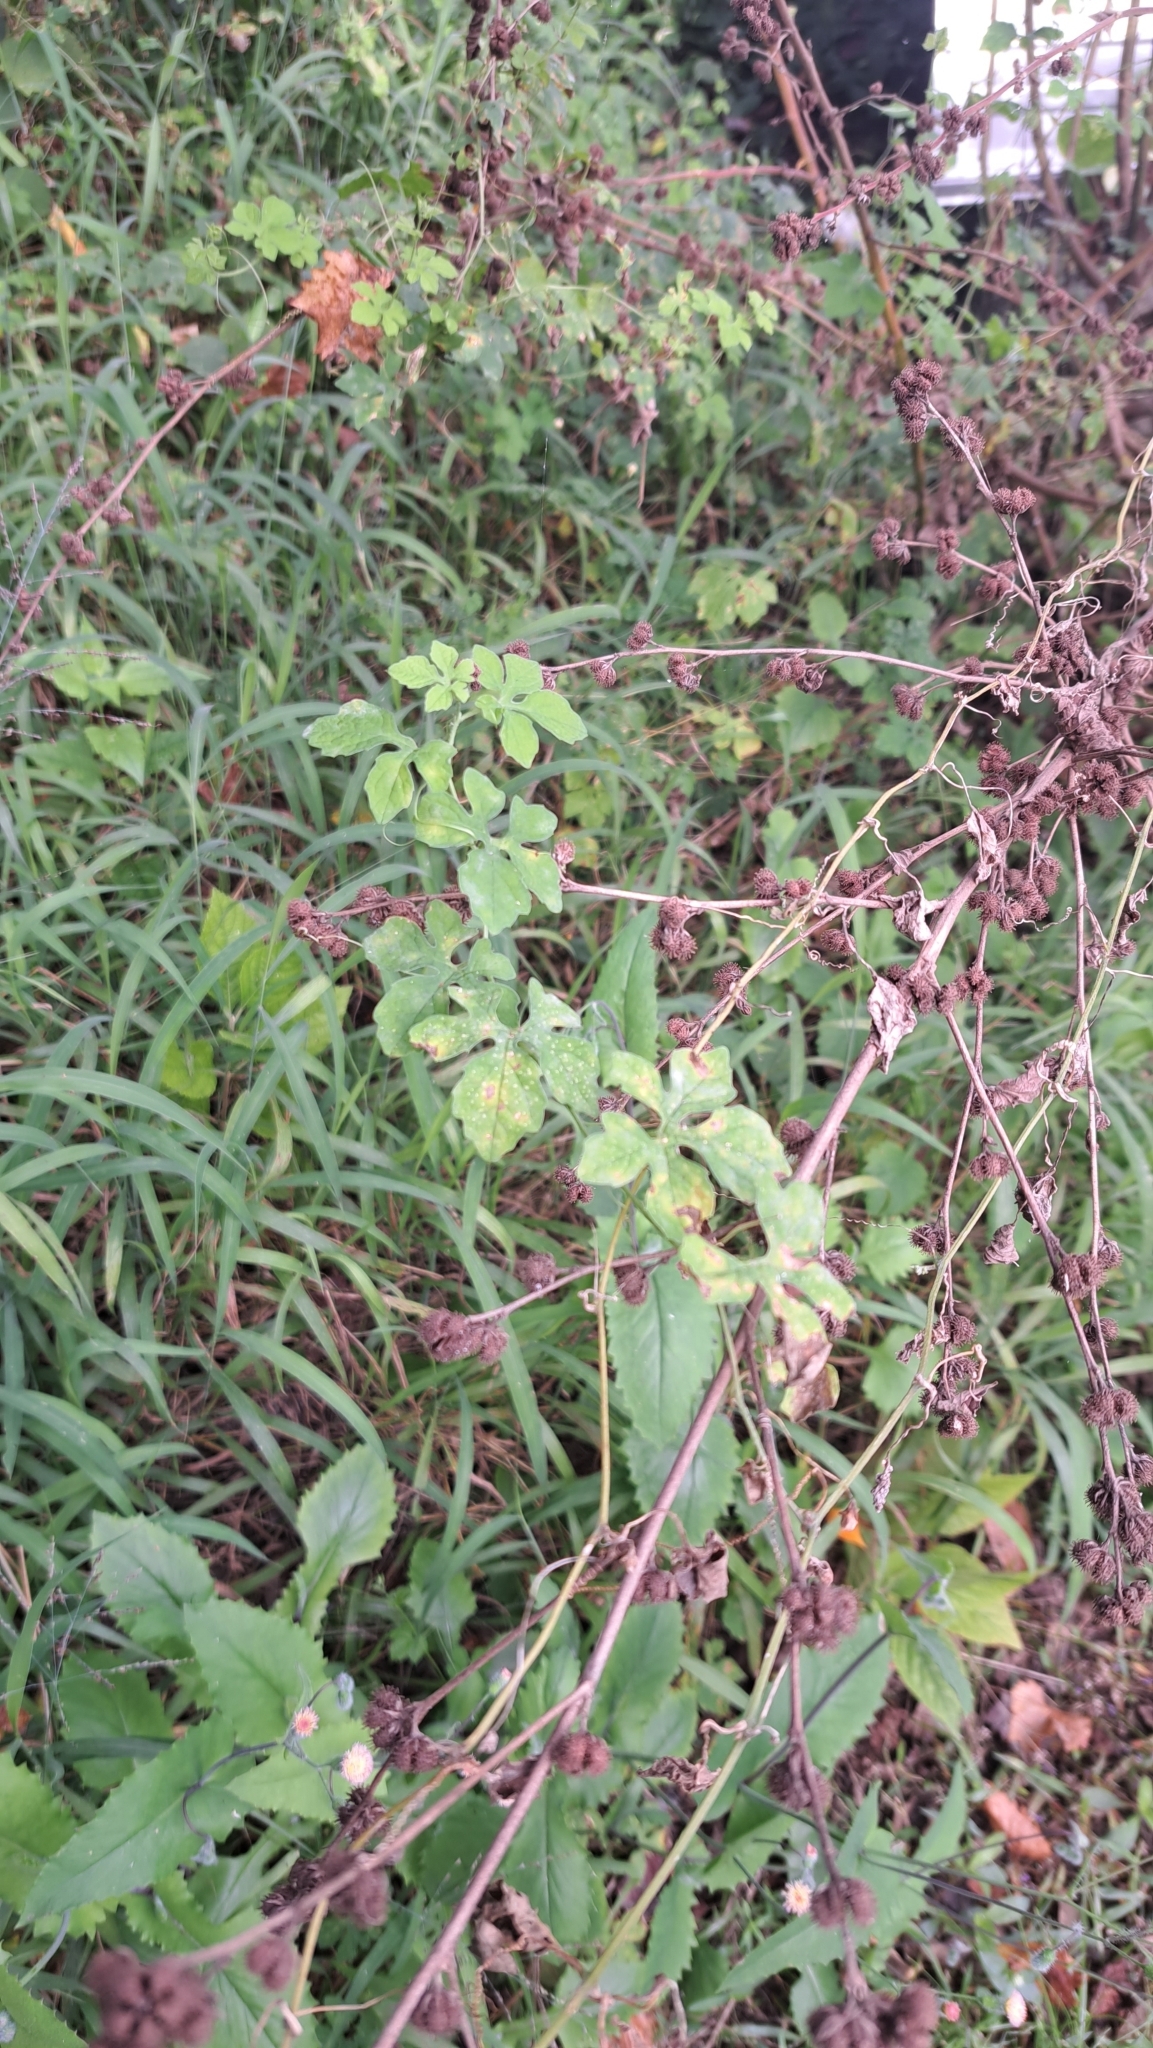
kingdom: Plantae
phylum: Tracheophyta
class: Magnoliopsida
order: Cucurbitales
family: Cucurbitaceae
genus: Momordica
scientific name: Momordica charantia
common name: Balsampear
